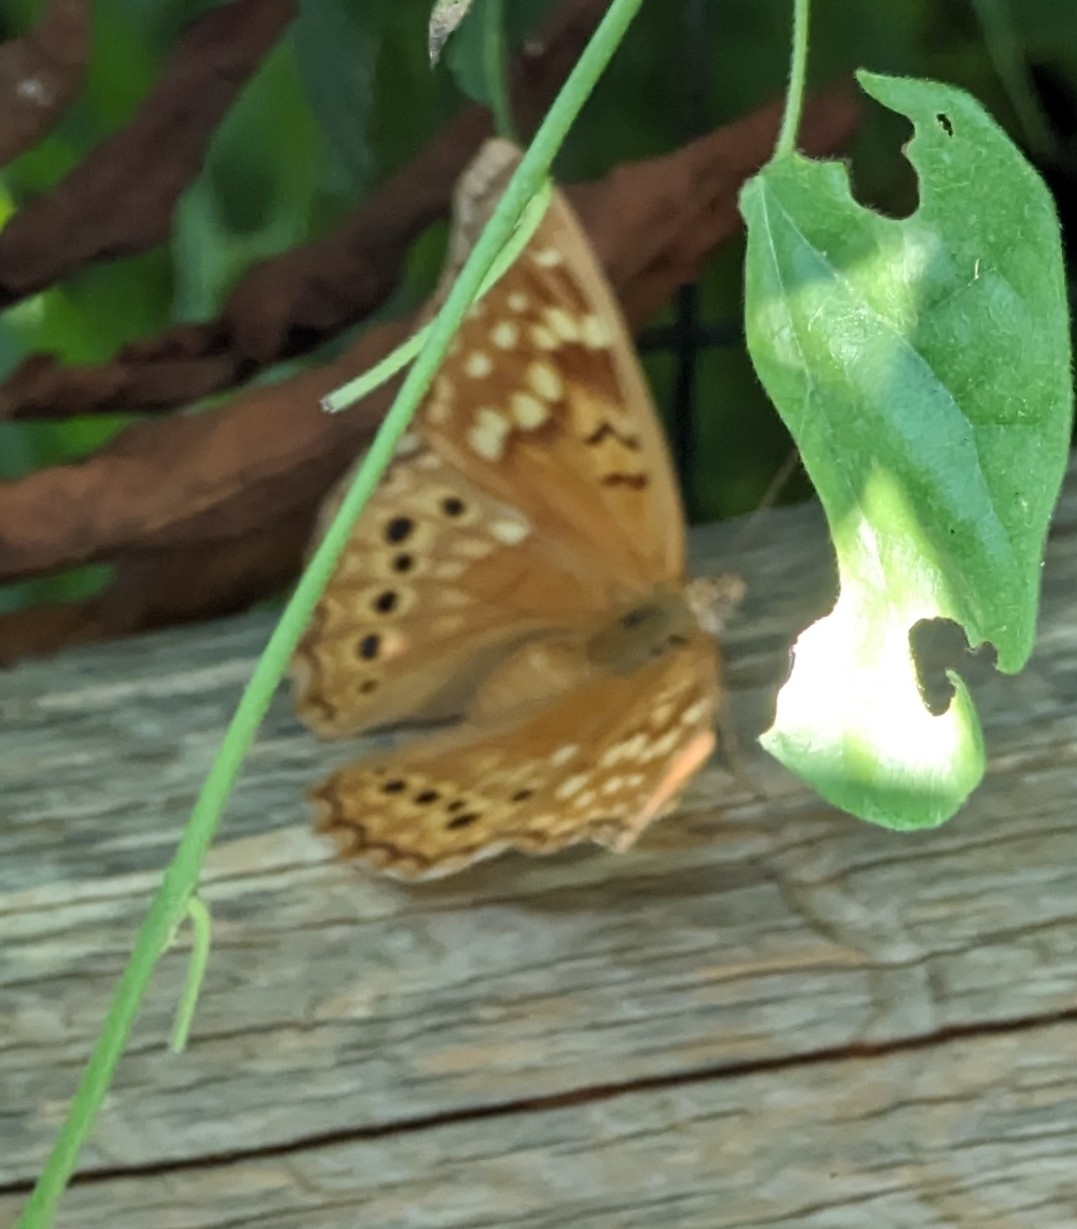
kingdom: Animalia
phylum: Arthropoda
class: Insecta
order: Lepidoptera
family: Nymphalidae
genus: Asterocampa
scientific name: Asterocampa clyton
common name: Tawny emperor
